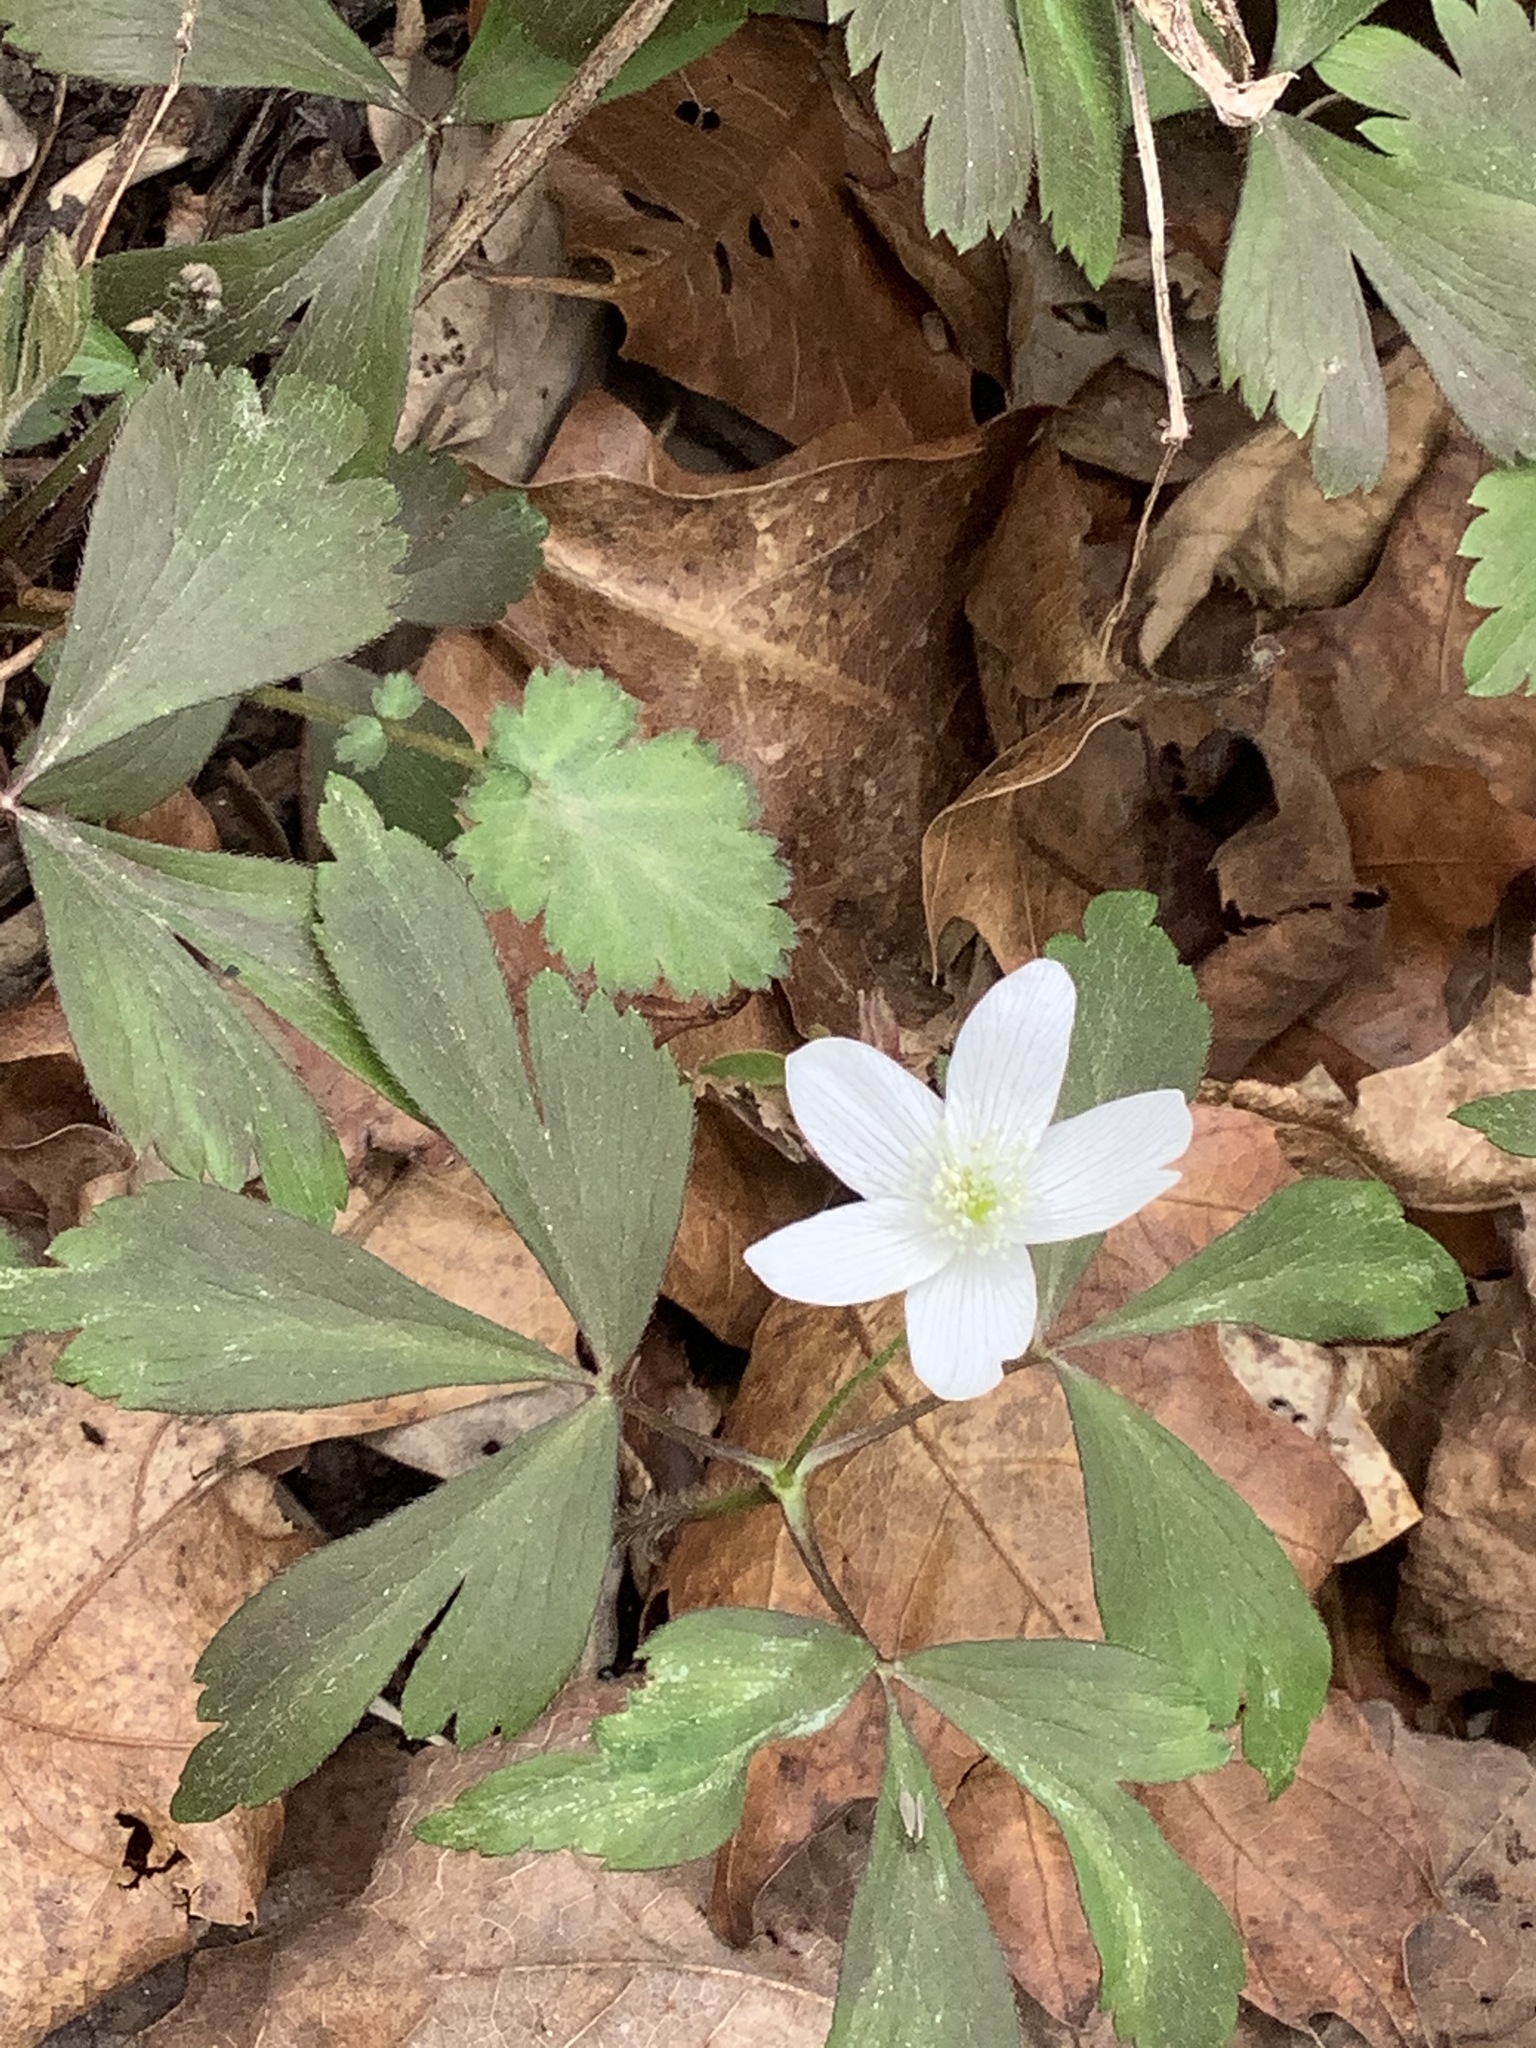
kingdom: Plantae
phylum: Tracheophyta
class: Magnoliopsida
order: Ranunculales
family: Ranunculaceae
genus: Anemone
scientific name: Anemone quinquefolia
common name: Wood anemone
